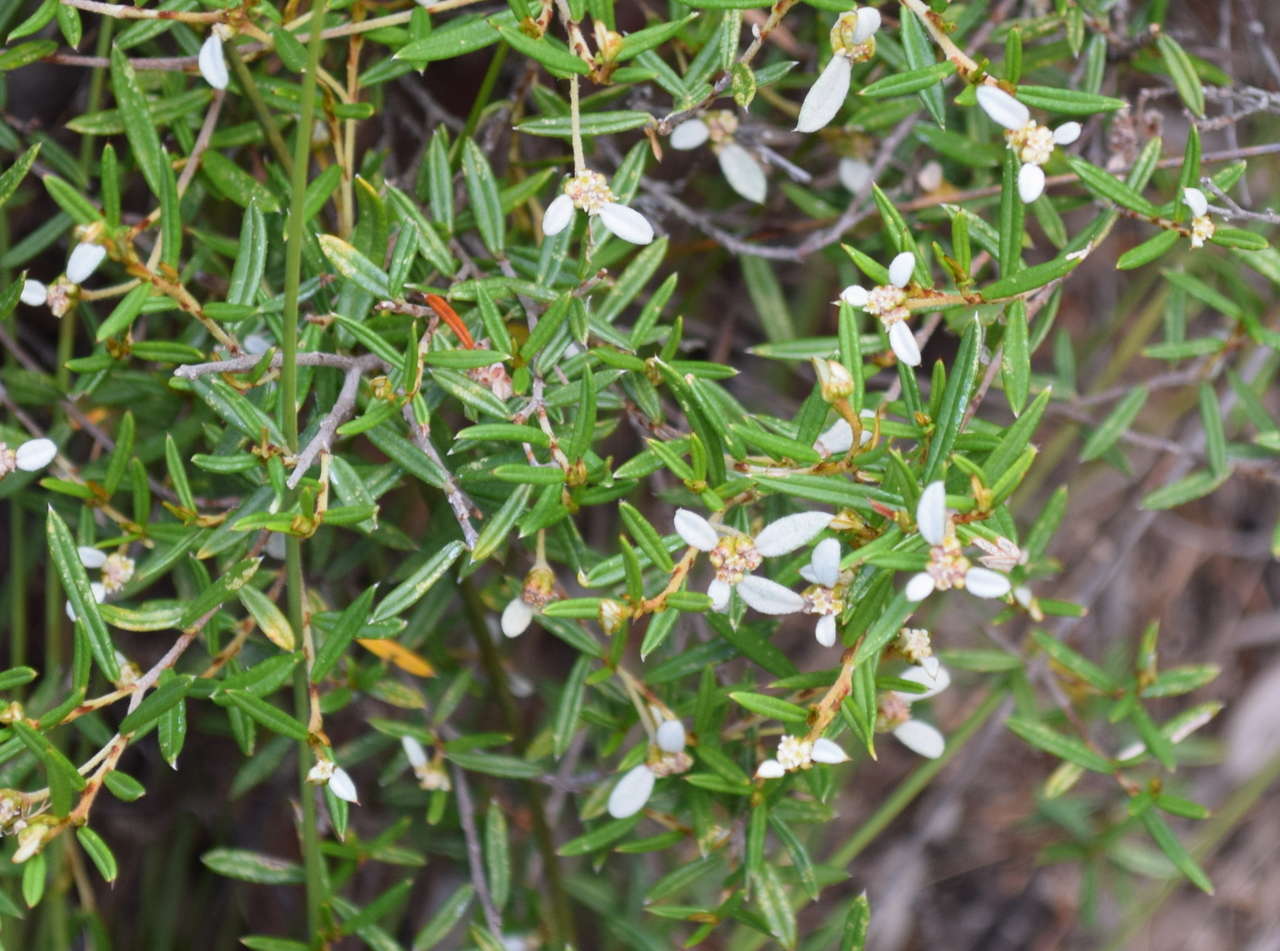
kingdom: Plantae
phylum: Tracheophyta
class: Magnoliopsida
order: Rosales
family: Rhamnaceae
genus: Spyridium
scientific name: Spyridium vexilliferum
